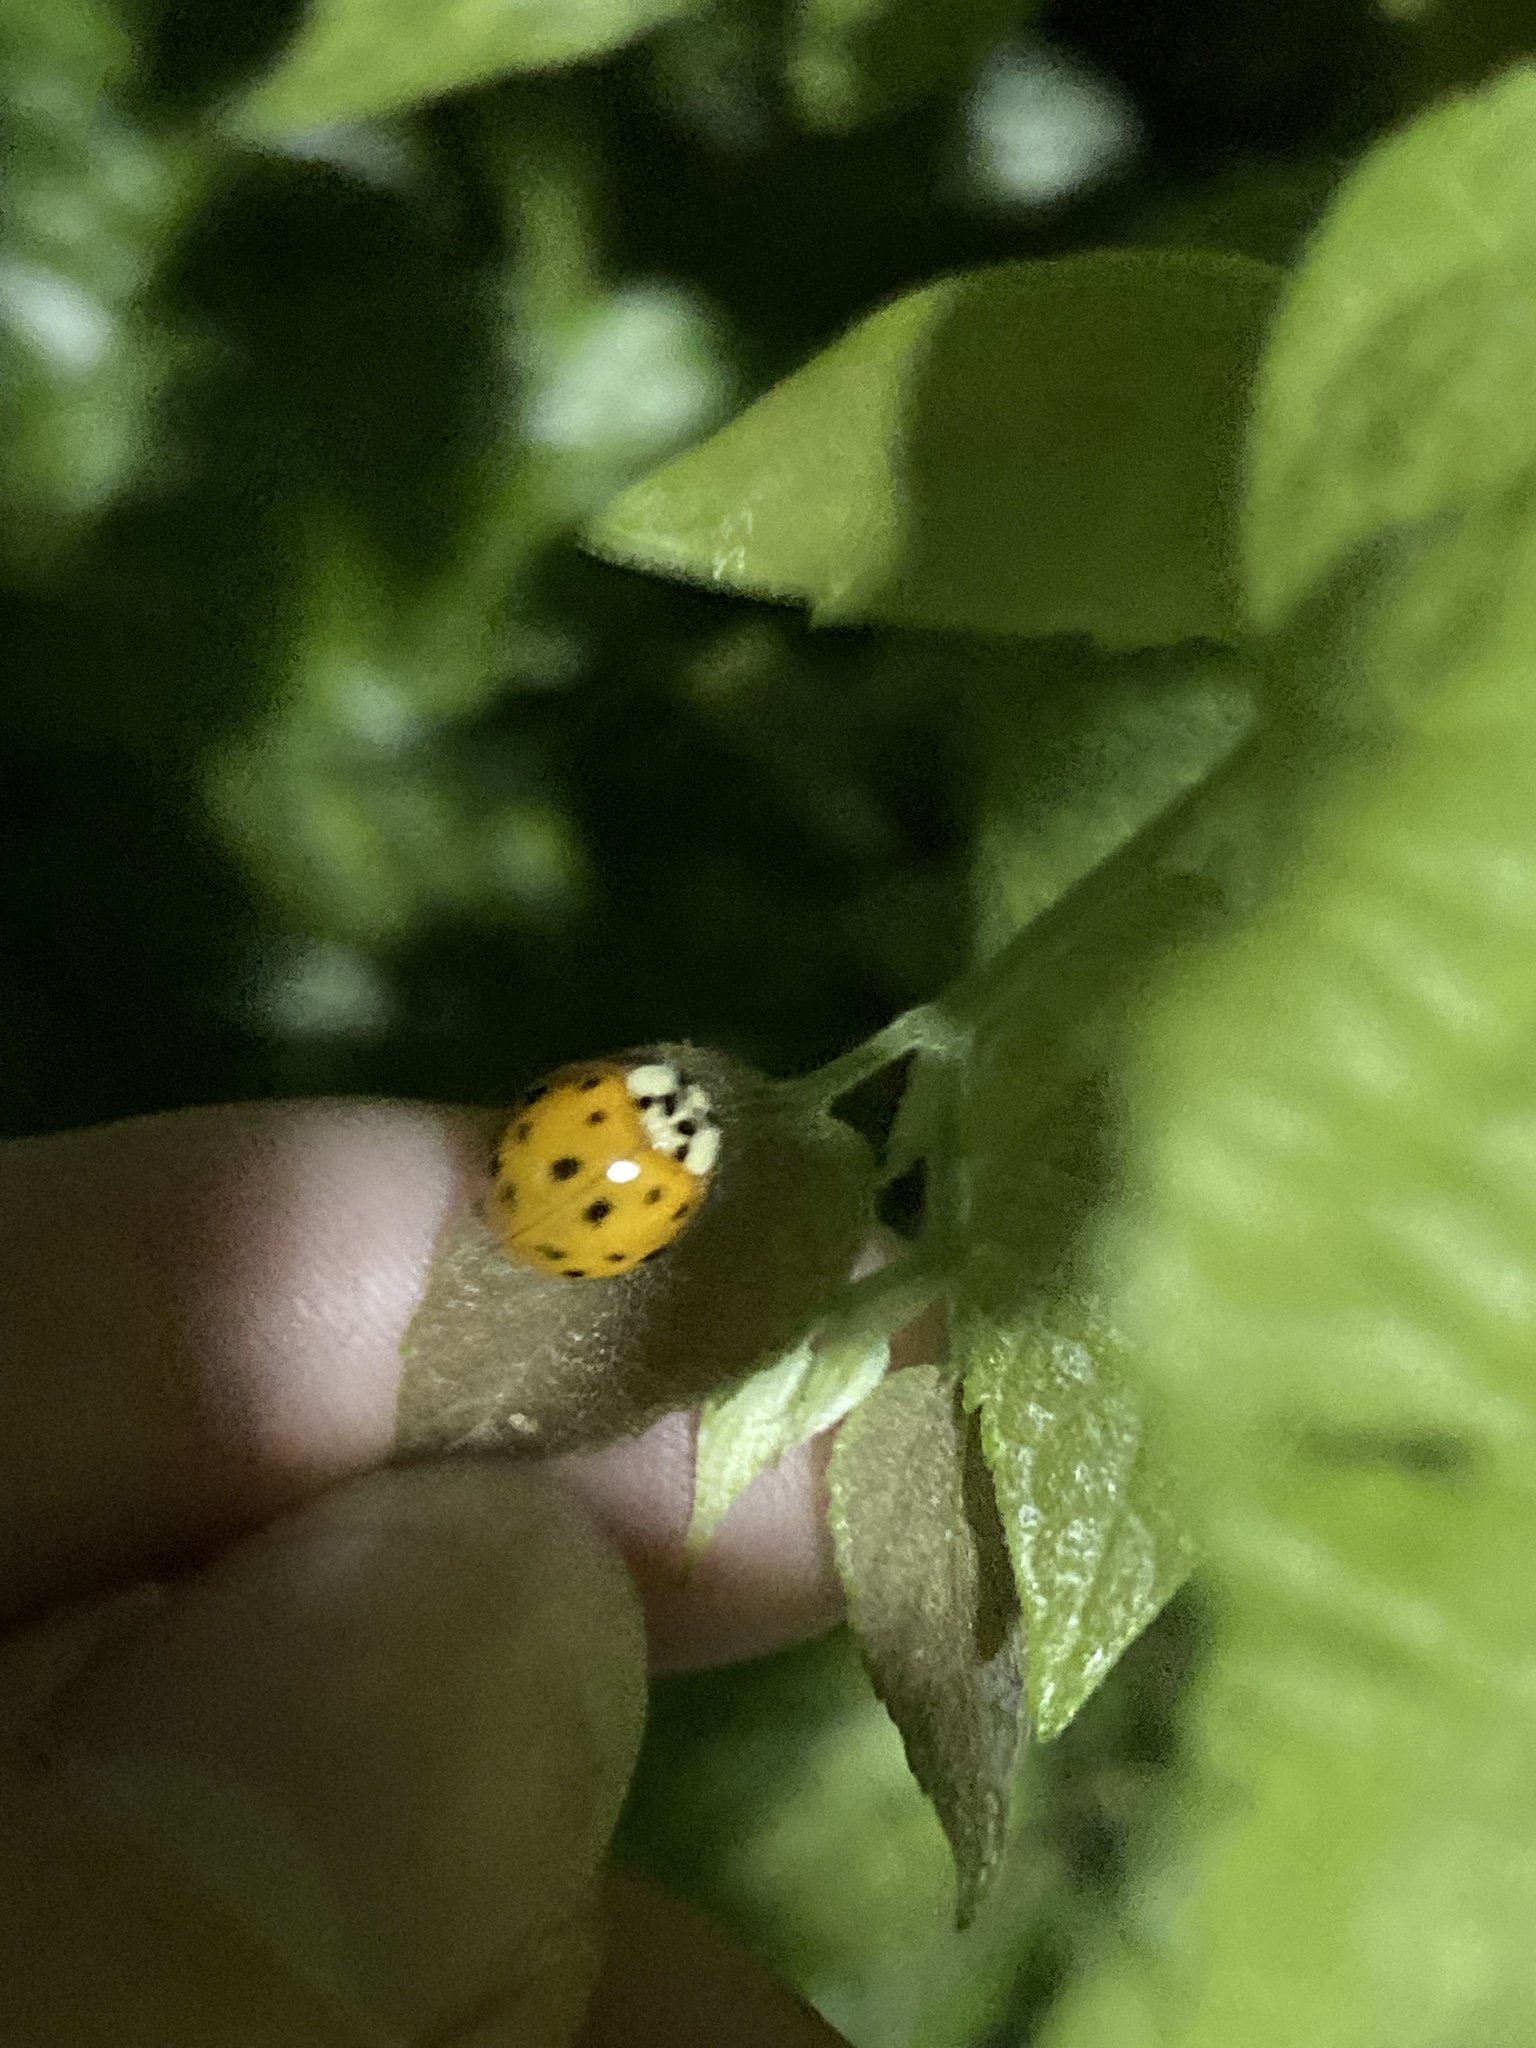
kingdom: Animalia
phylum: Arthropoda
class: Insecta
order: Coleoptera
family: Coccinellidae
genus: Harmonia
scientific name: Harmonia axyridis
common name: Harlequin ladybird
